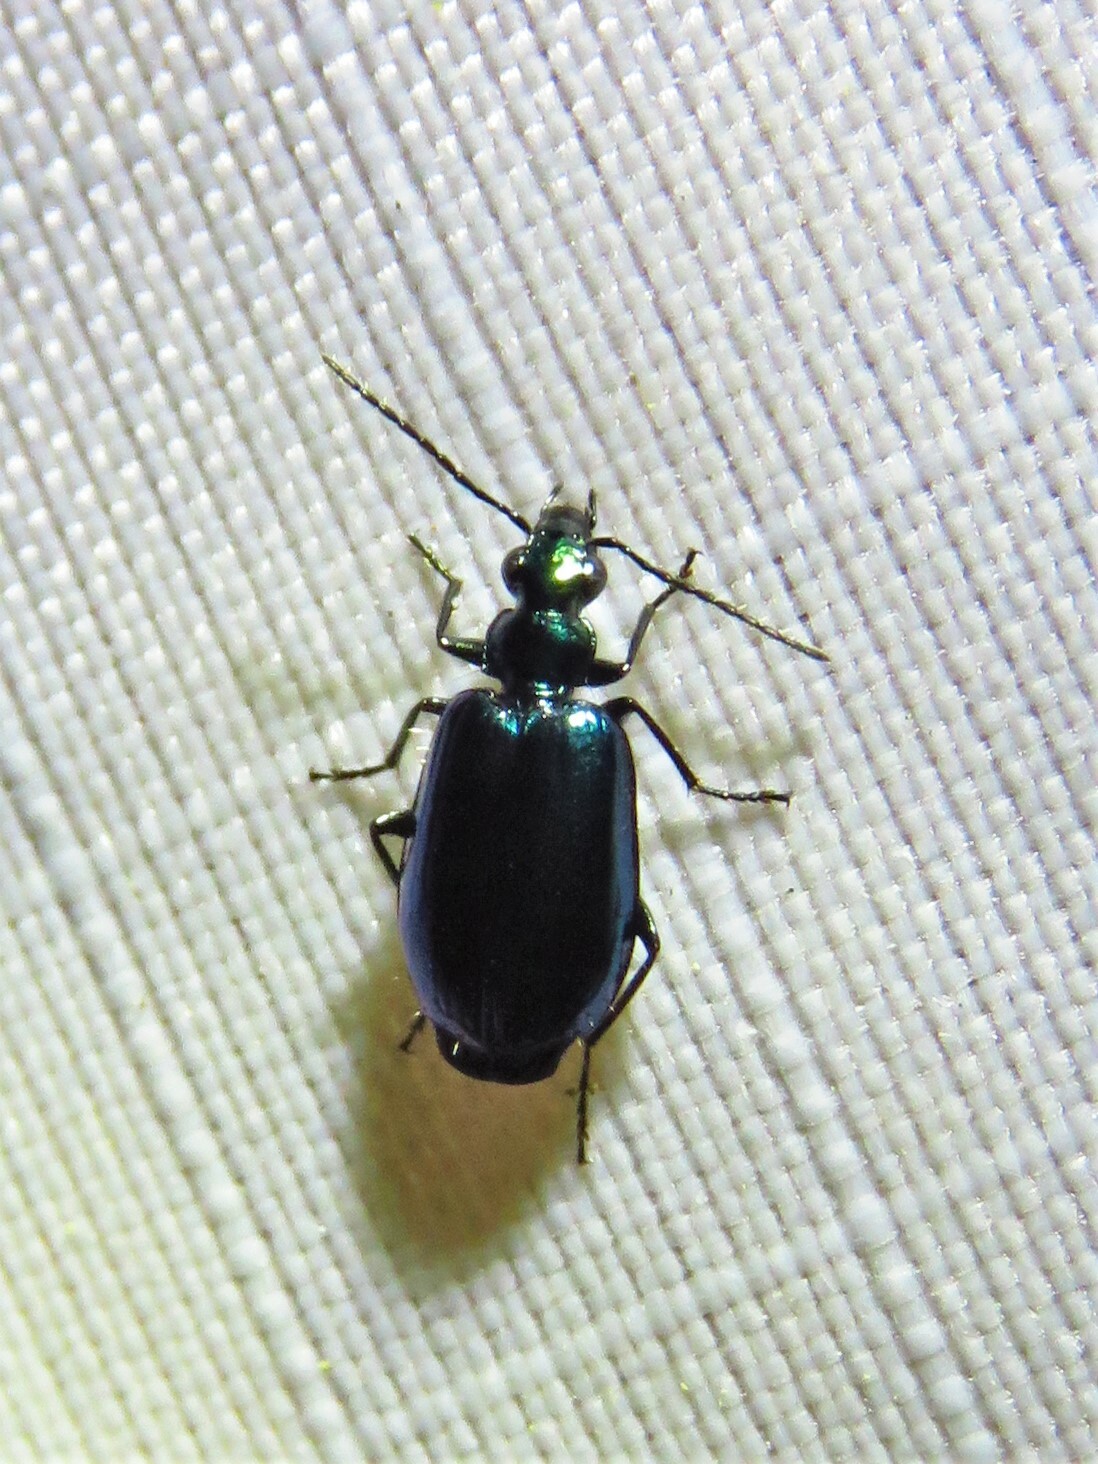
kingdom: Animalia
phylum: Arthropoda
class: Insecta
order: Coleoptera
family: Carabidae
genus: Lebia
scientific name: Lebia viridis
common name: Flower lebia beetle
